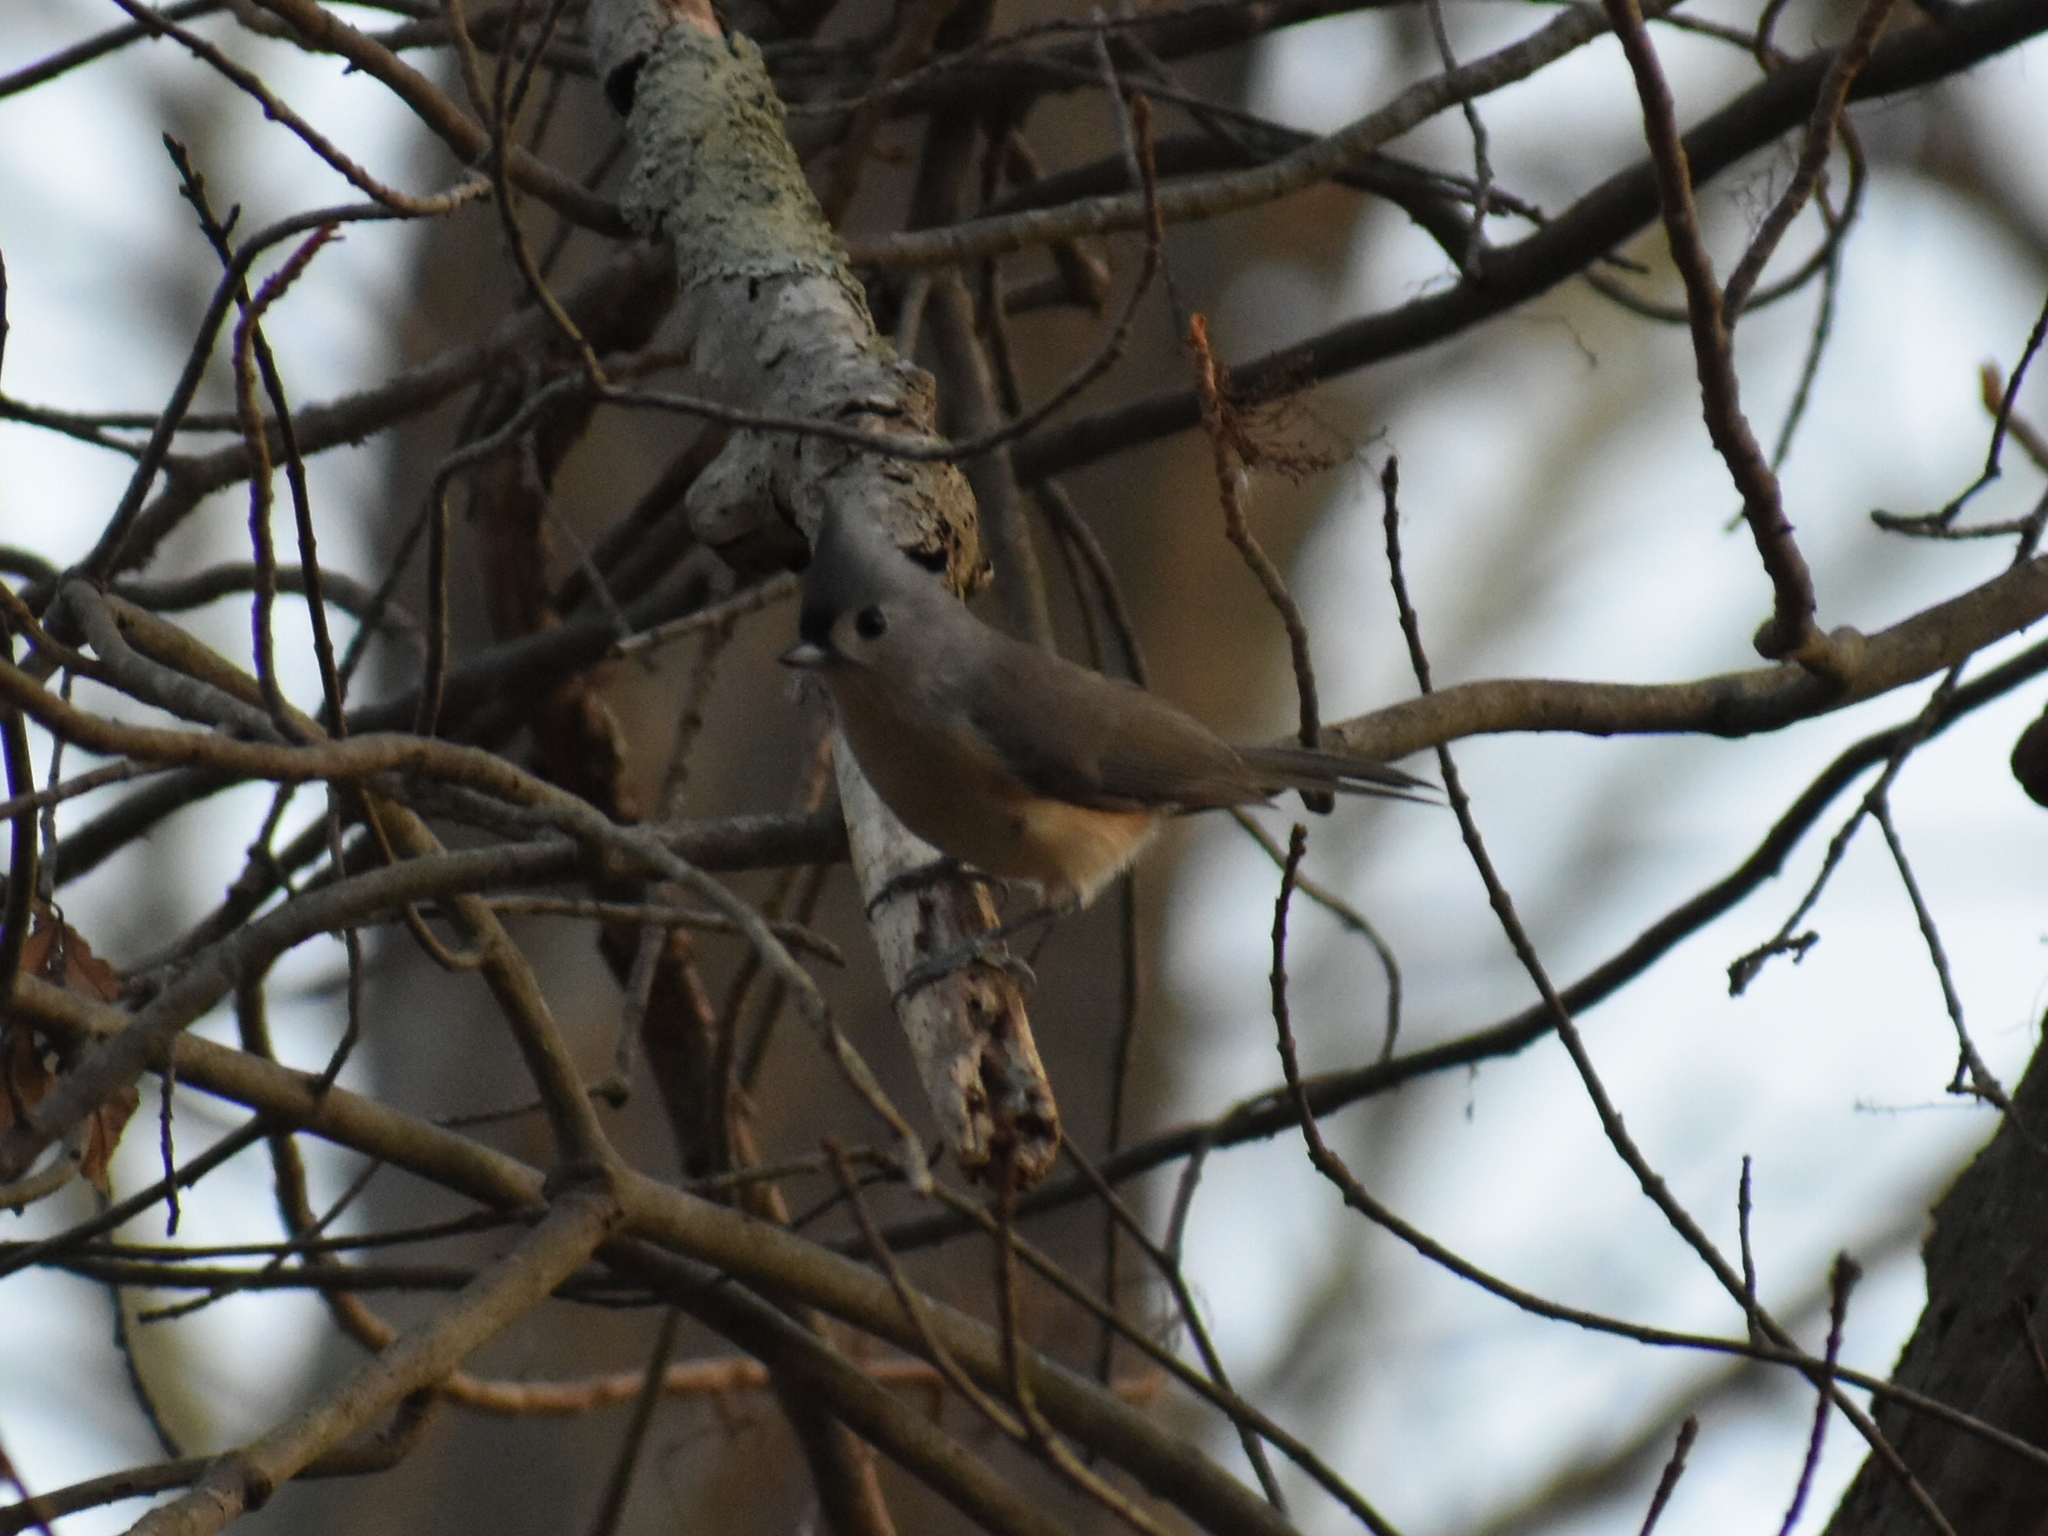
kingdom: Animalia
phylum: Chordata
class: Aves
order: Passeriformes
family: Paridae
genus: Baeolophus
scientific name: Baeolophus bicolor
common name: Tufted titmouse
